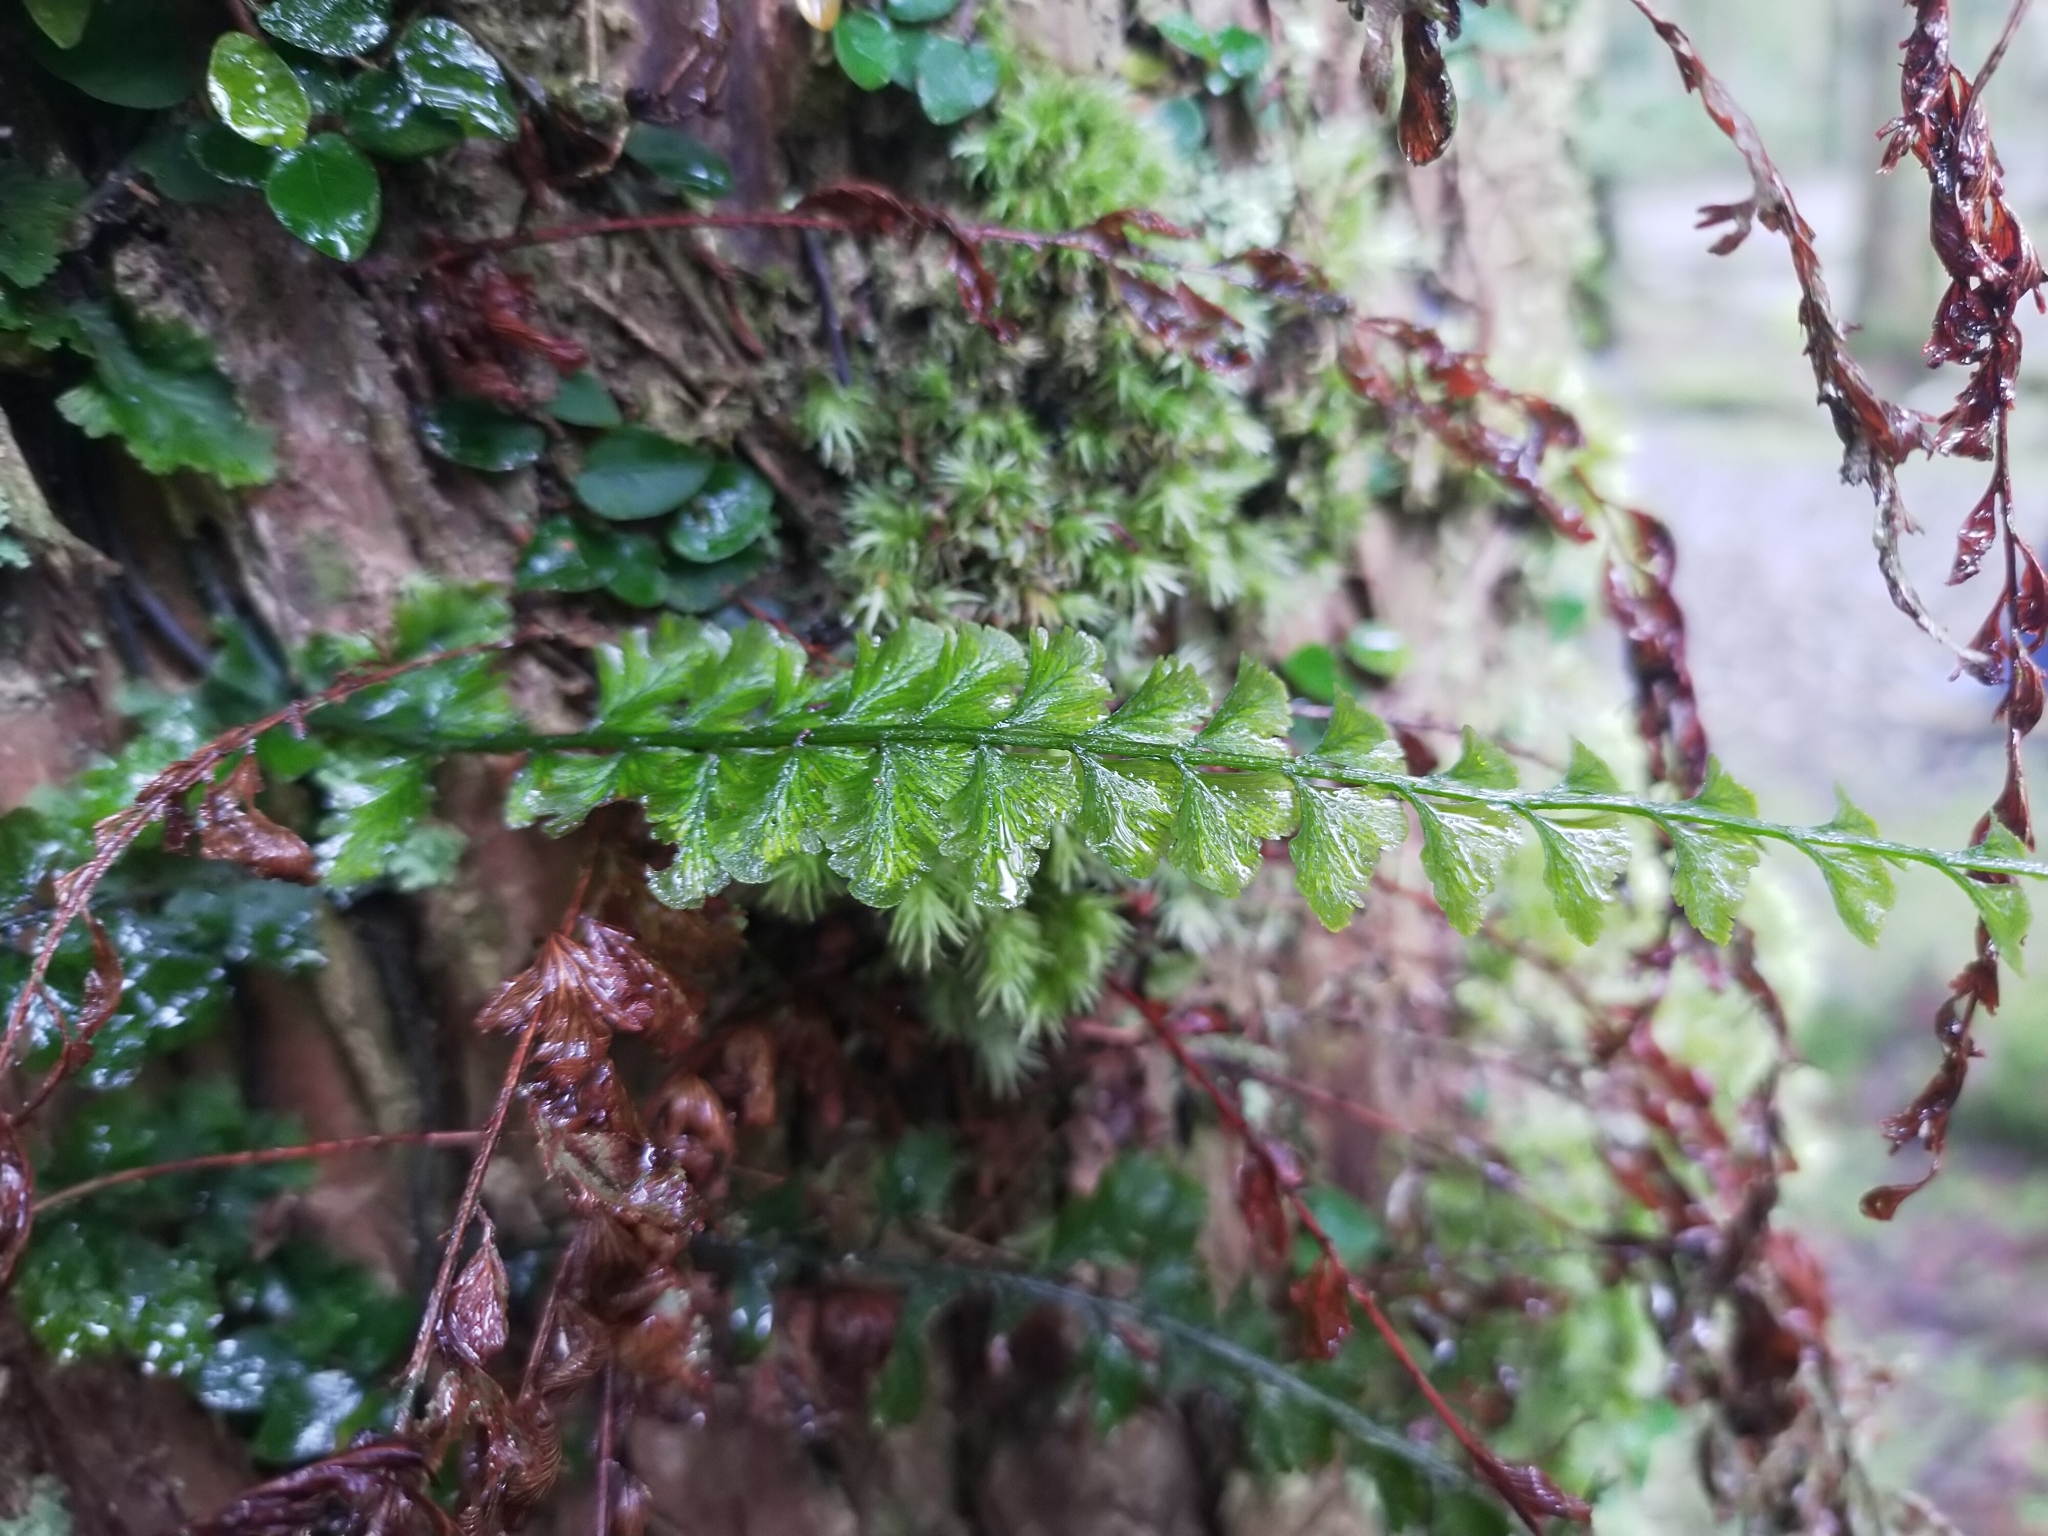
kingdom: Plantae
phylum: Tracheophyta
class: Polypodiopsida
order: Hymenophyllales
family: Hymenophyllaceae
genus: Vandenboschia
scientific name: Vandenboschia auriculata
